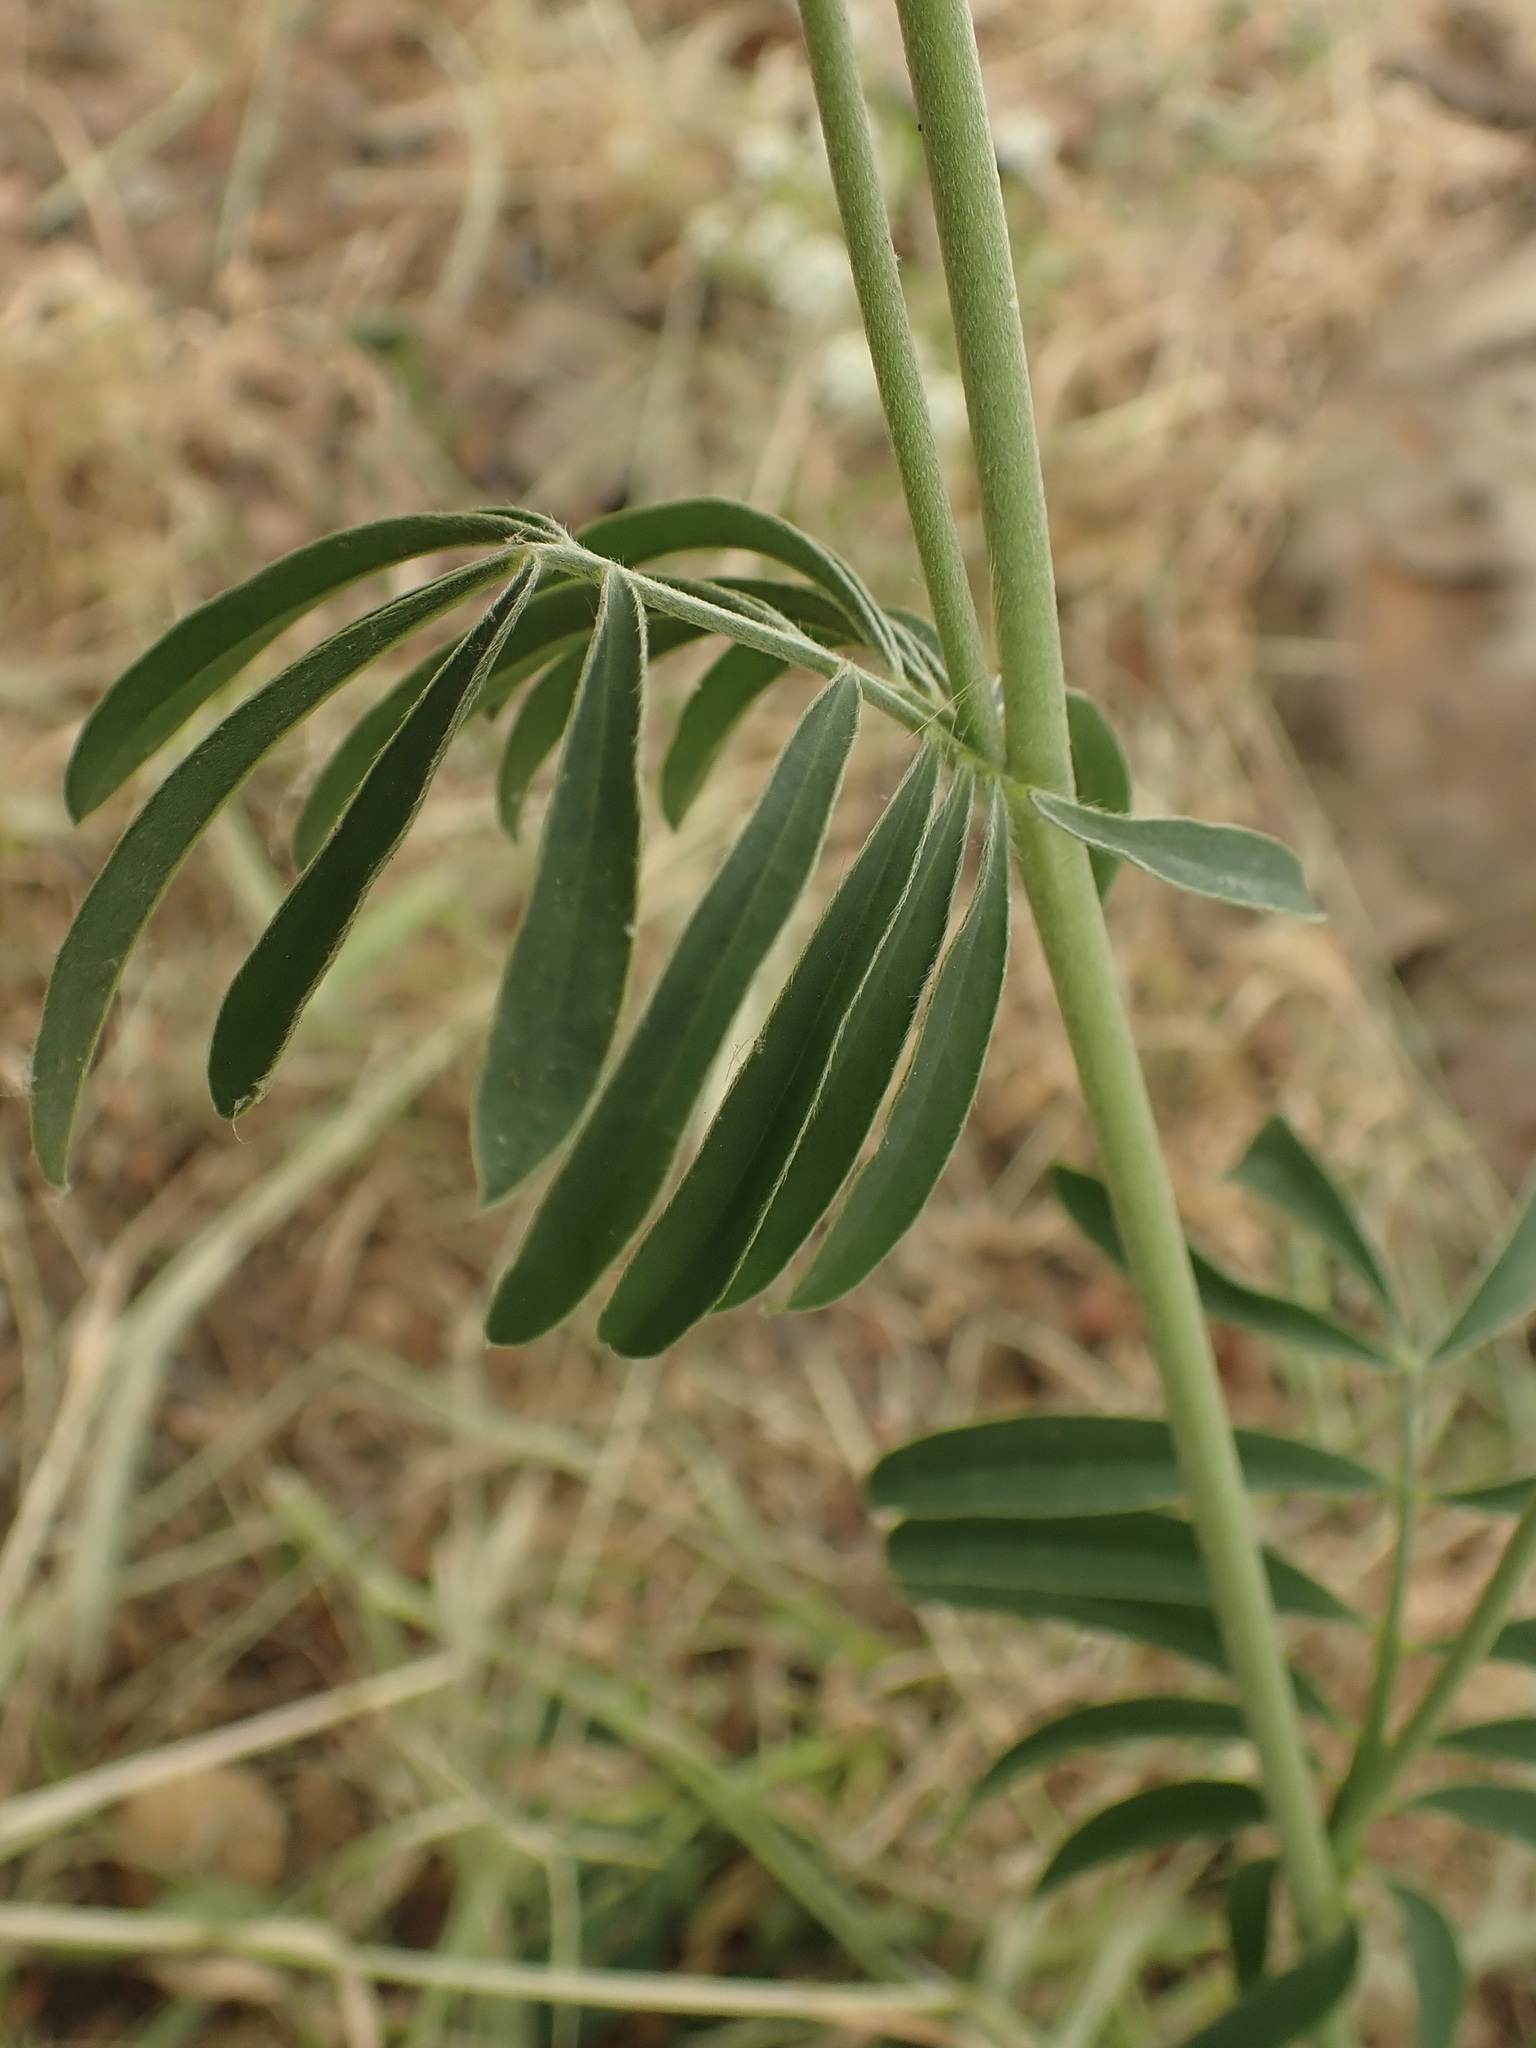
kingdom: Plantae
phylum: Tracheophyta
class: Magnoliopsida
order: Fabales
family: Fabaceae
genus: Anthyllis
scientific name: Anthyllis vulneraria
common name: Kidney vetch
